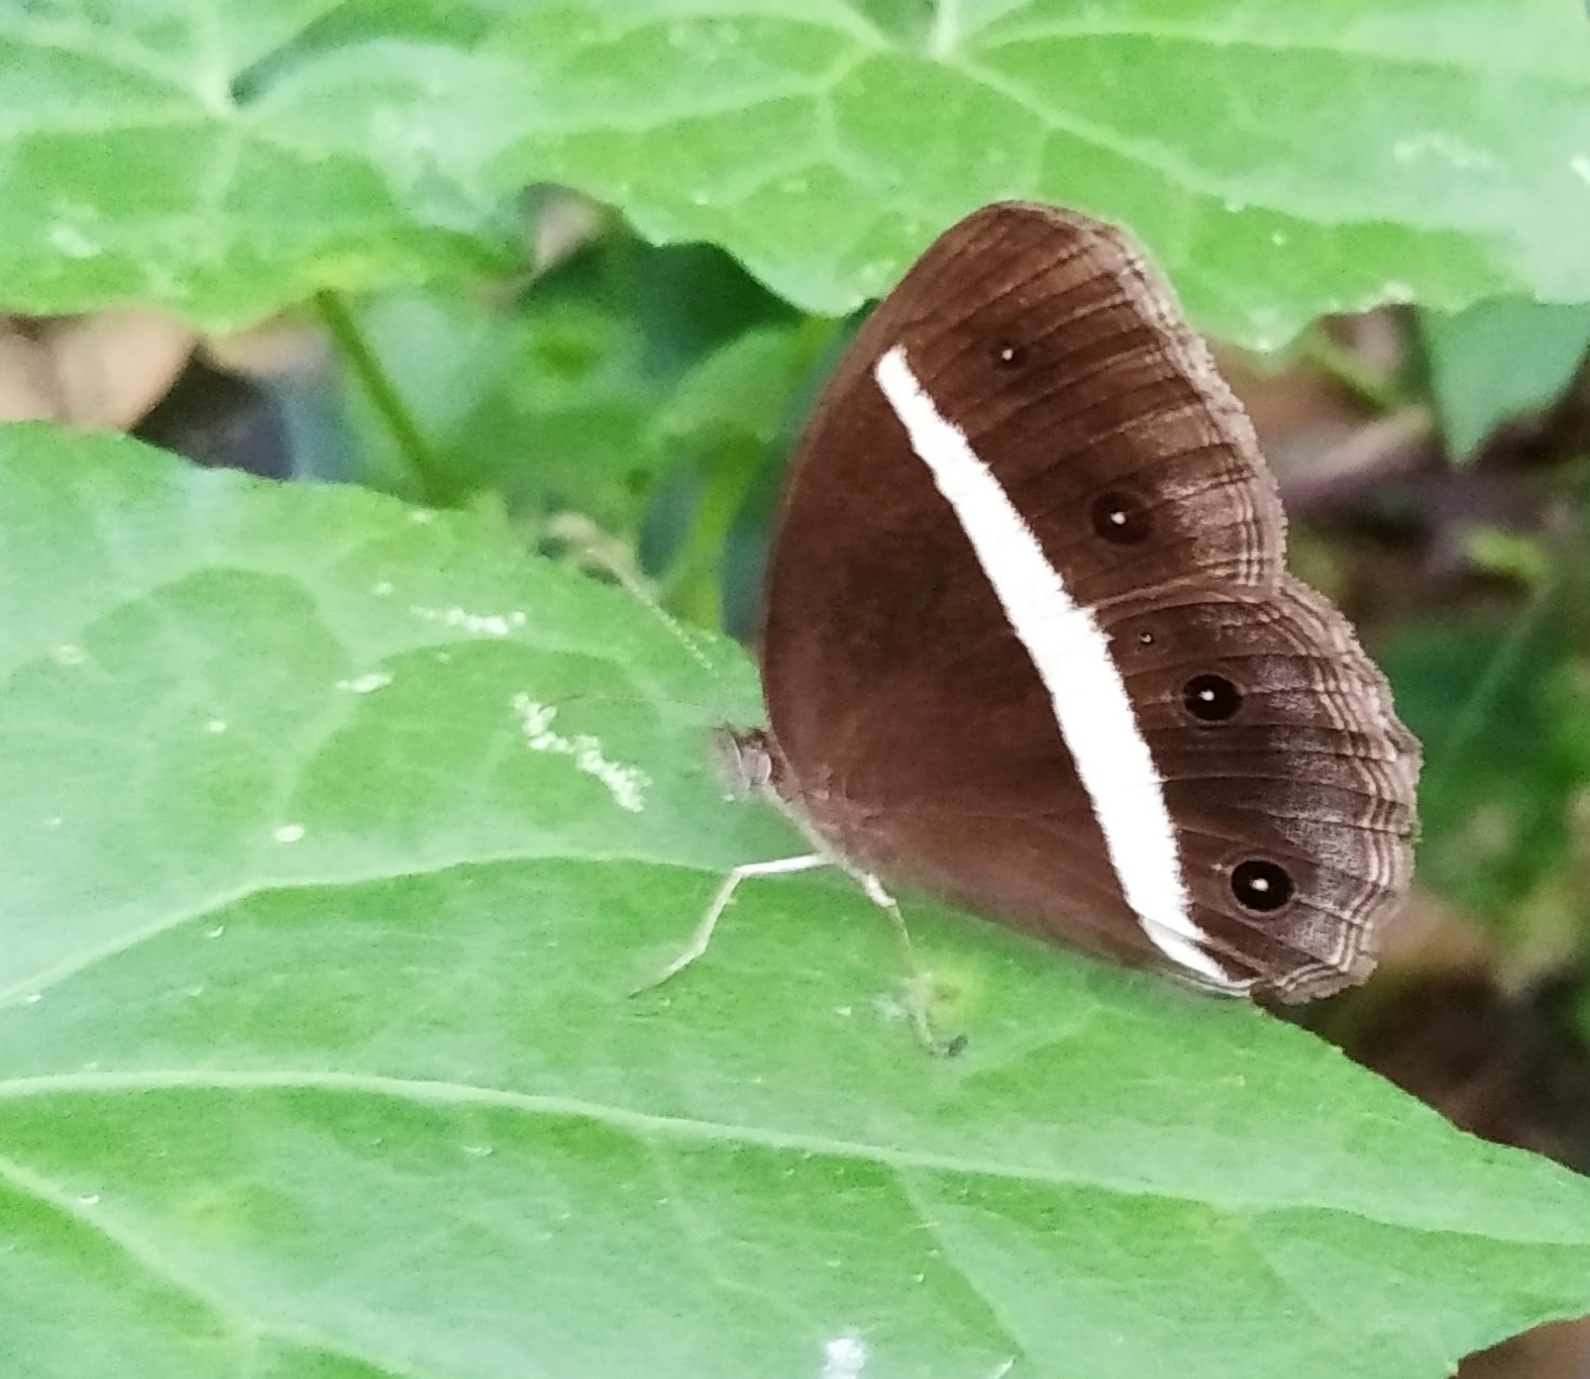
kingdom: Animalia
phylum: Arthropoda
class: Insecta
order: Lepidoptera
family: Nymphalidae
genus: Orsotriaena
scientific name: Orsotriaena medus
